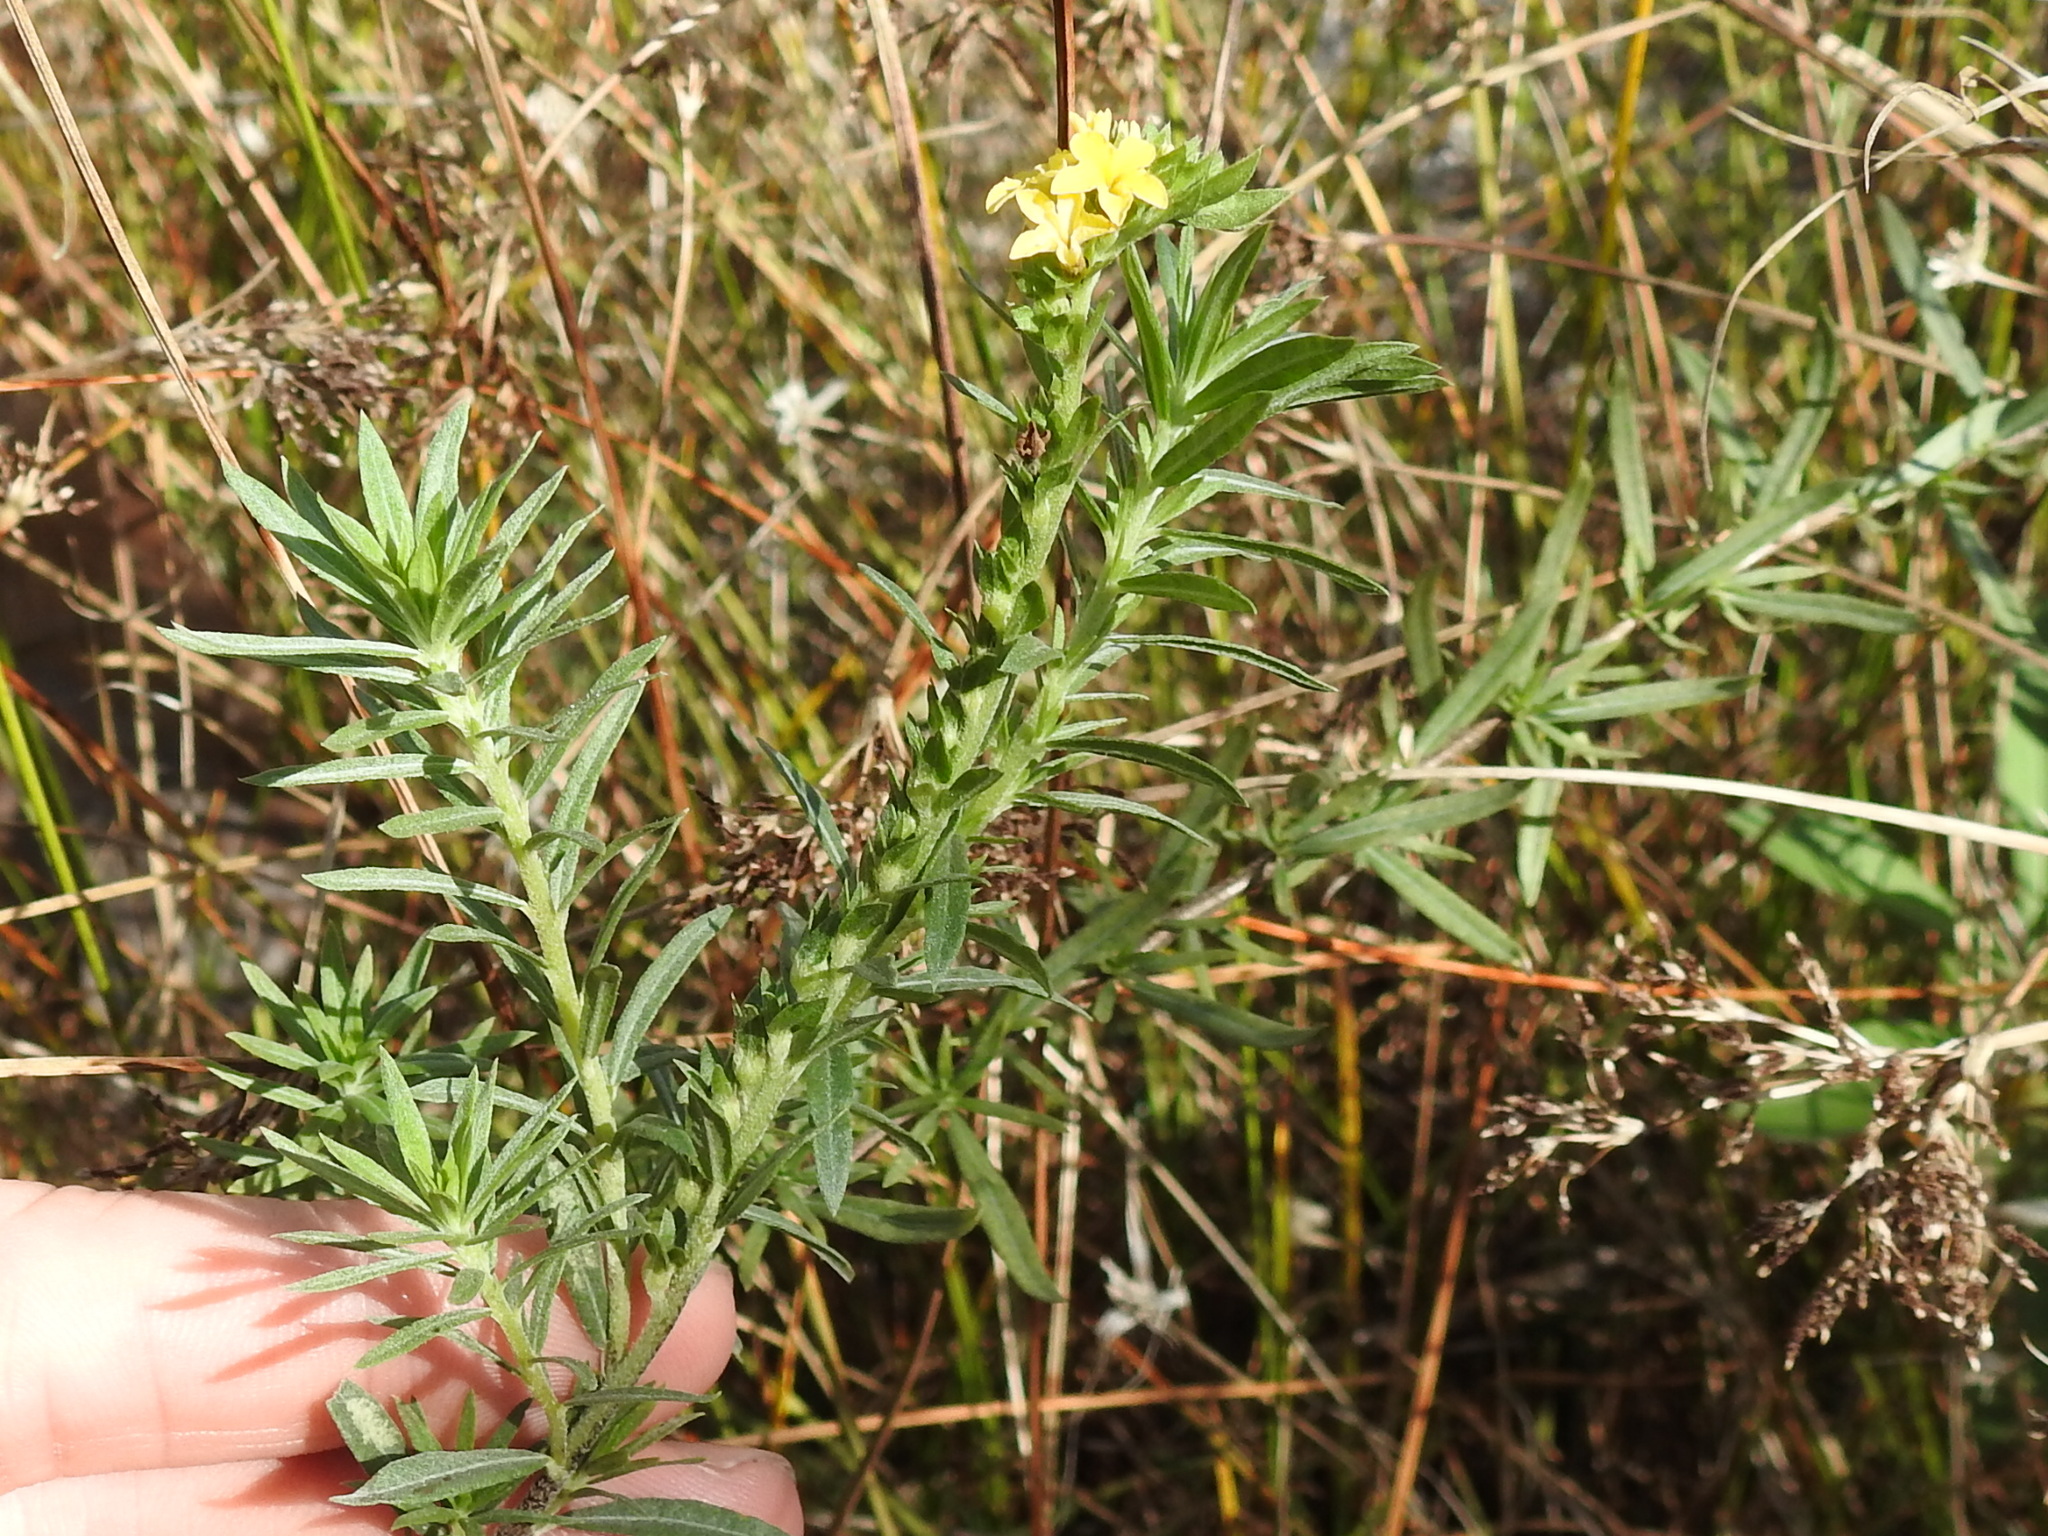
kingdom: Plantae
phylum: Tracheophyta
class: Magnoliopsida
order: Boraginales
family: Heliotropiaceae
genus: Euploca
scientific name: Euploca polyphylla
